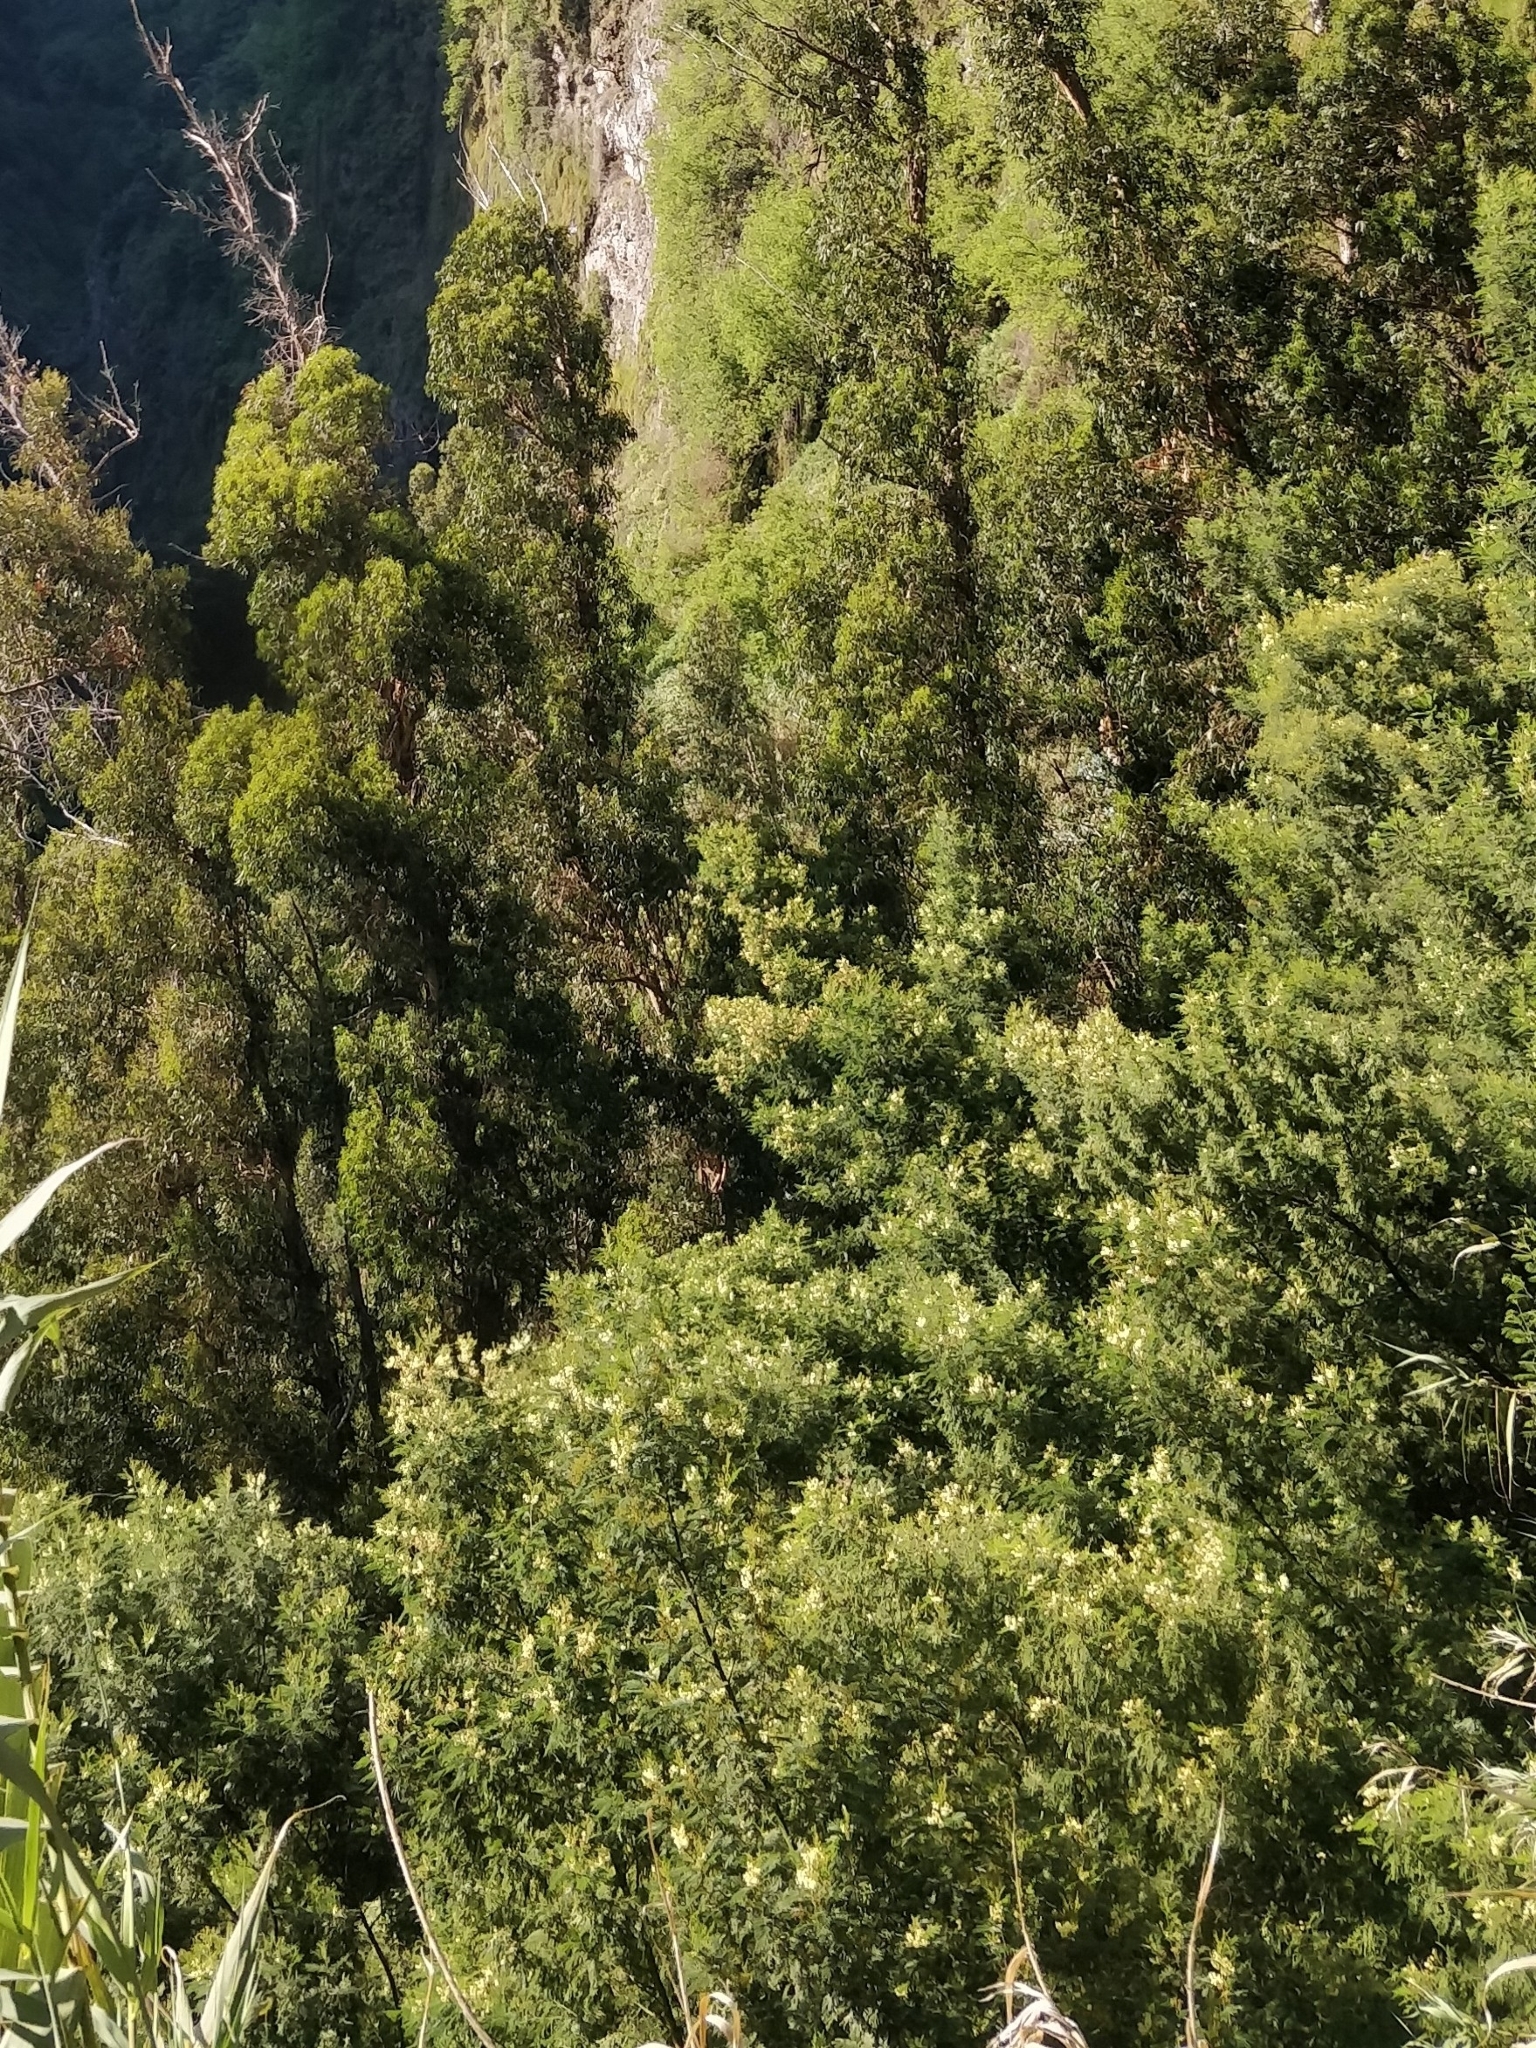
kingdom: Plantae
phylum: Tracheophyta
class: Magnoliopsida
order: Fabales
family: Fabaceae
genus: Acacia
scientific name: Acacia mearnsii
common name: Black wattle
